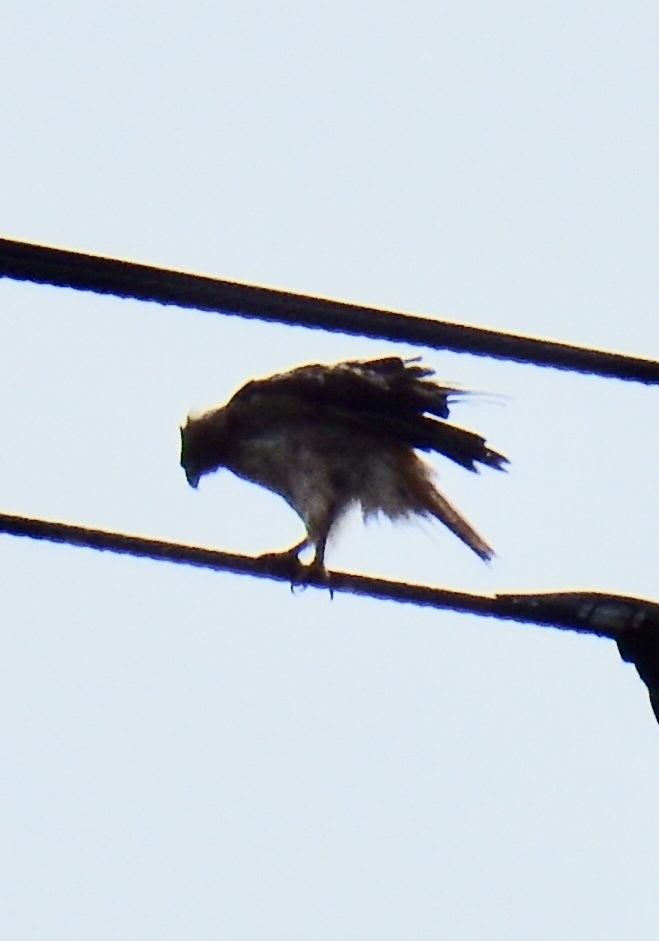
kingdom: Animalia
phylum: Chordata
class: Aves
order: Accipitriformes
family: Accipitridae
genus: Buteo
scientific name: Buteo jamaicensis
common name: Red-tailed hawk
